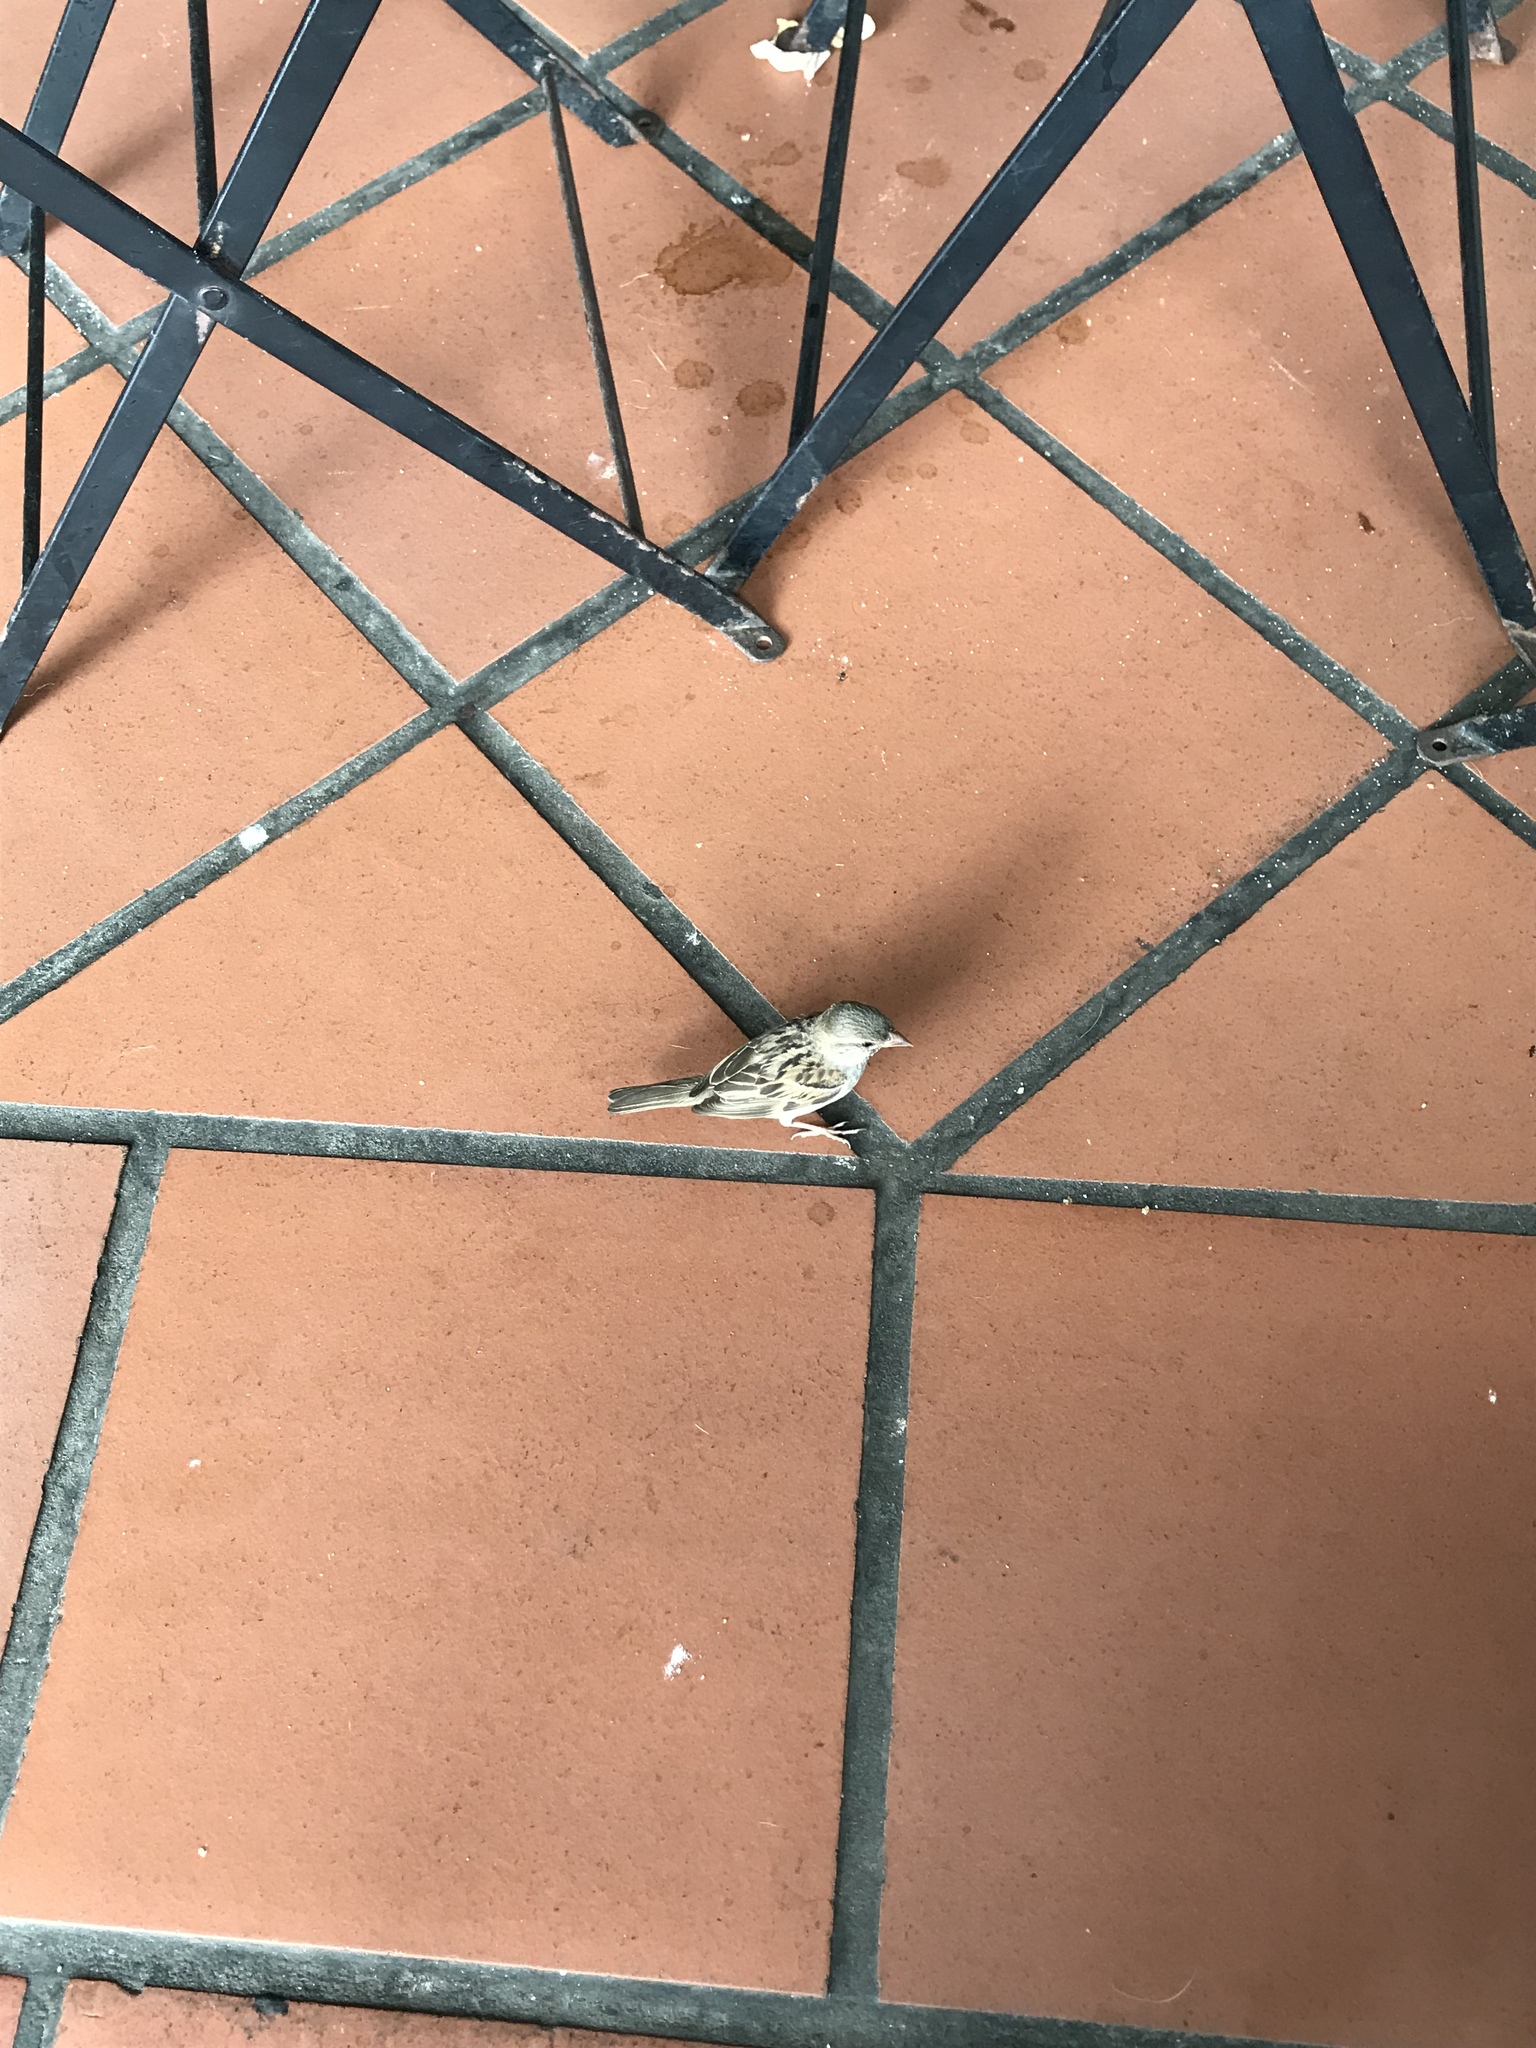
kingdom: Animalia
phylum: Chordata
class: Aves
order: Passeriformes
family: Passeridae
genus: Passer
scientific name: Passer domesticus
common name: House sparrow
